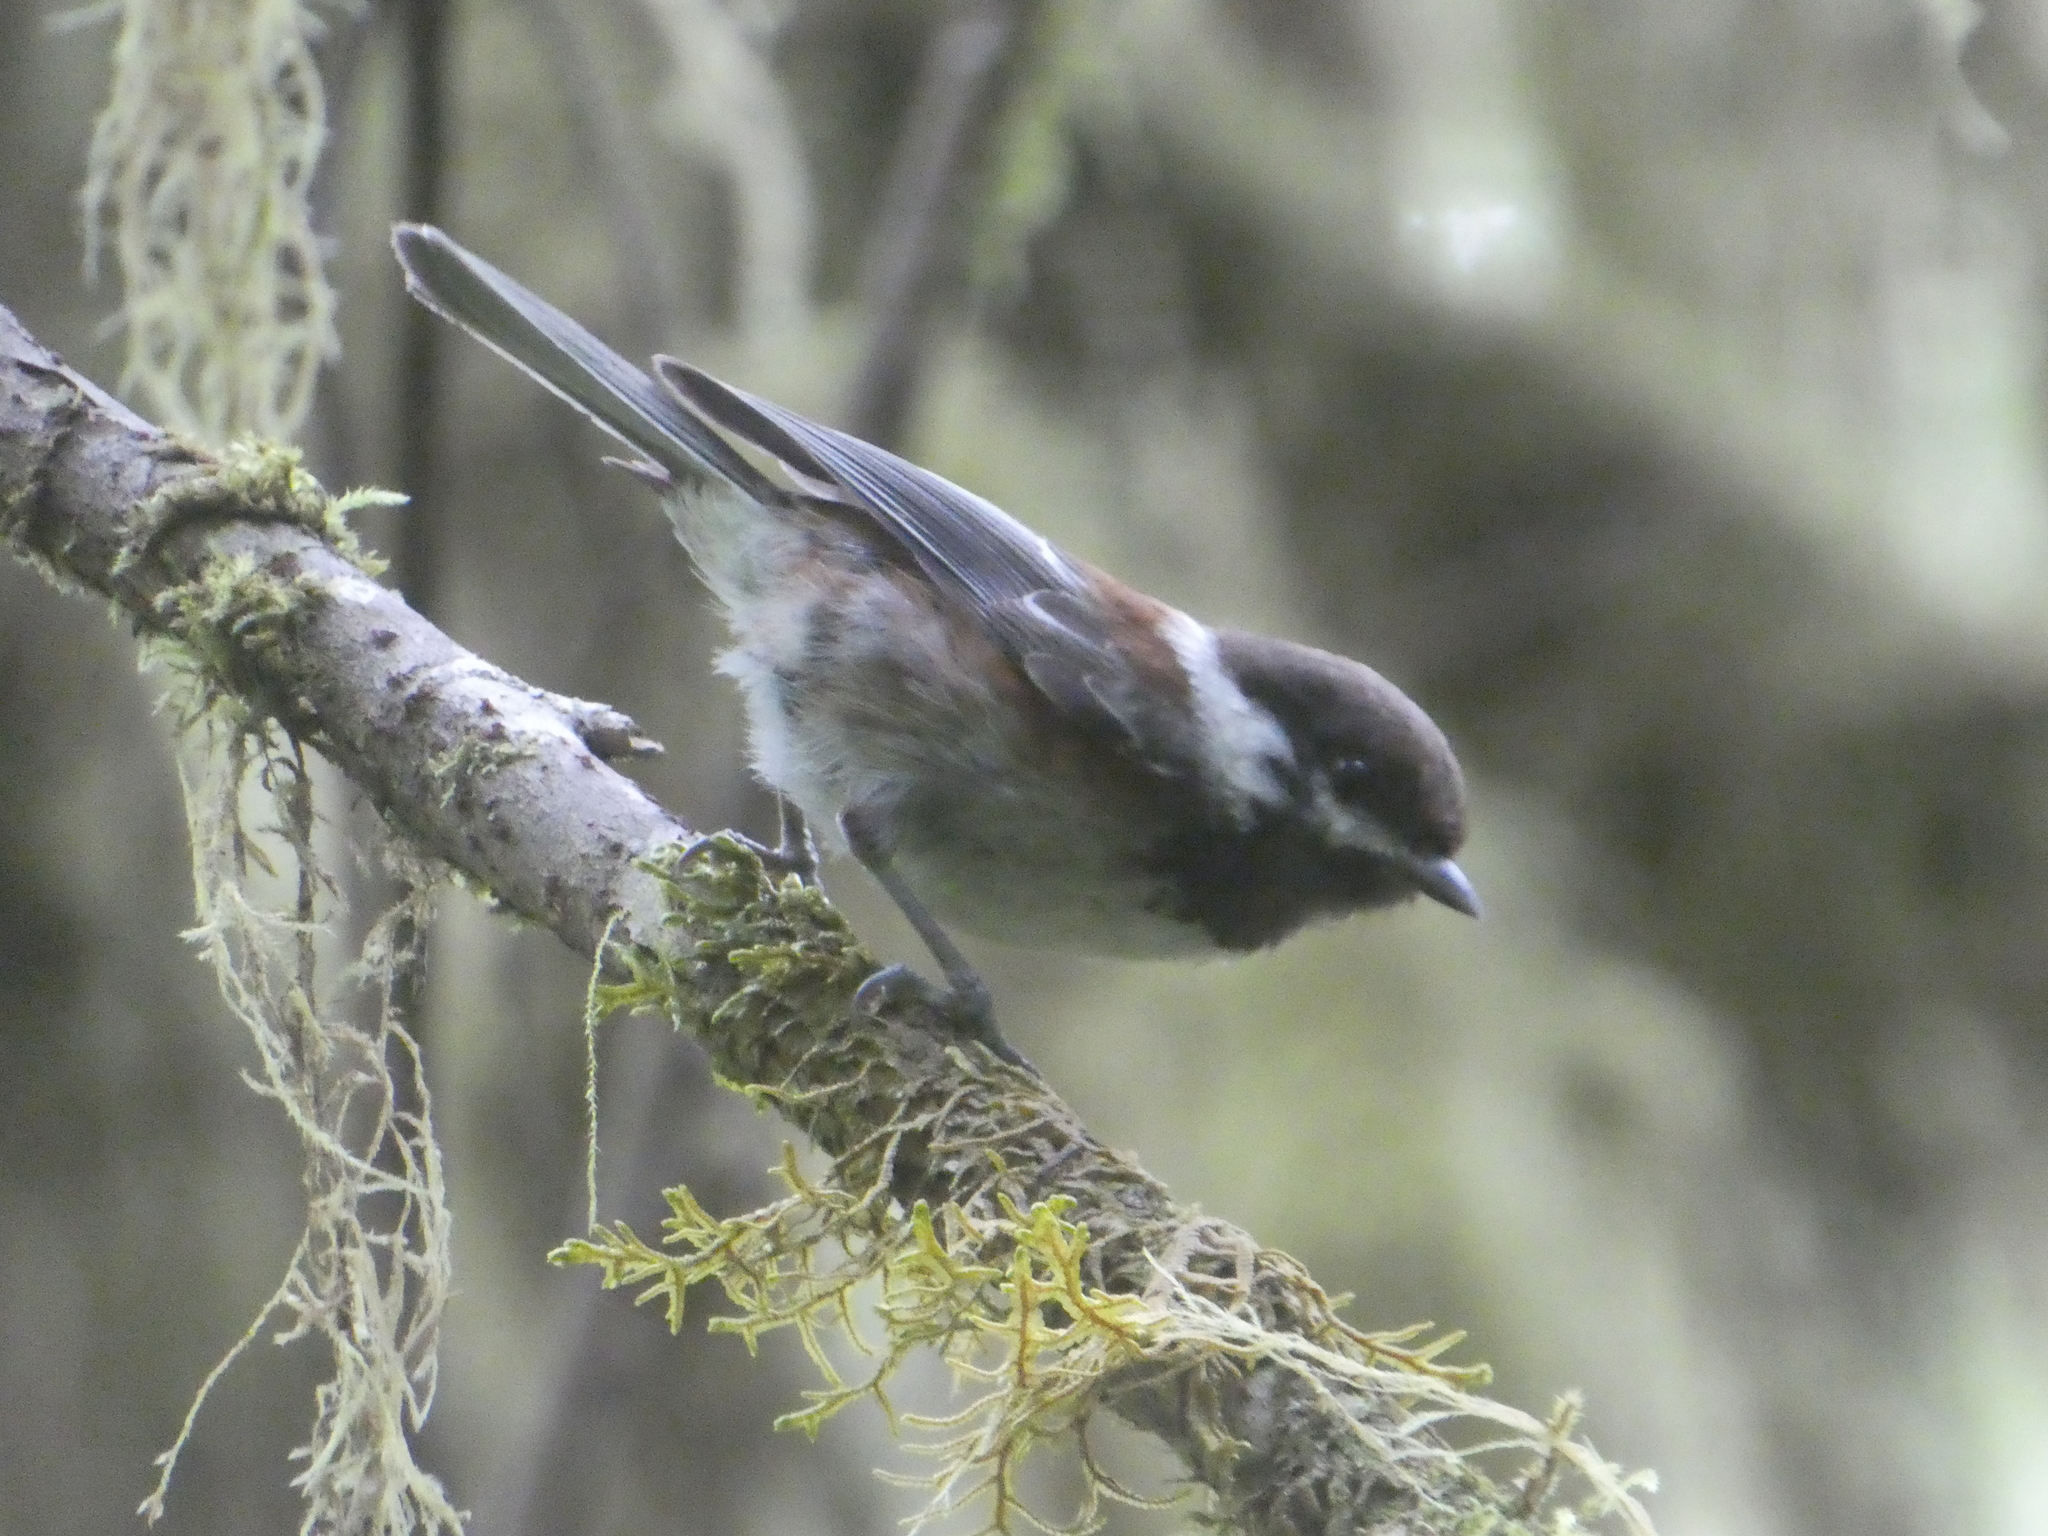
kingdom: Animalia
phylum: Chordata
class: Aves
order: Passeriformes
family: Paridae
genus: Poecile
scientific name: Poecile rufescens
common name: Chestnut-backed chickadee
